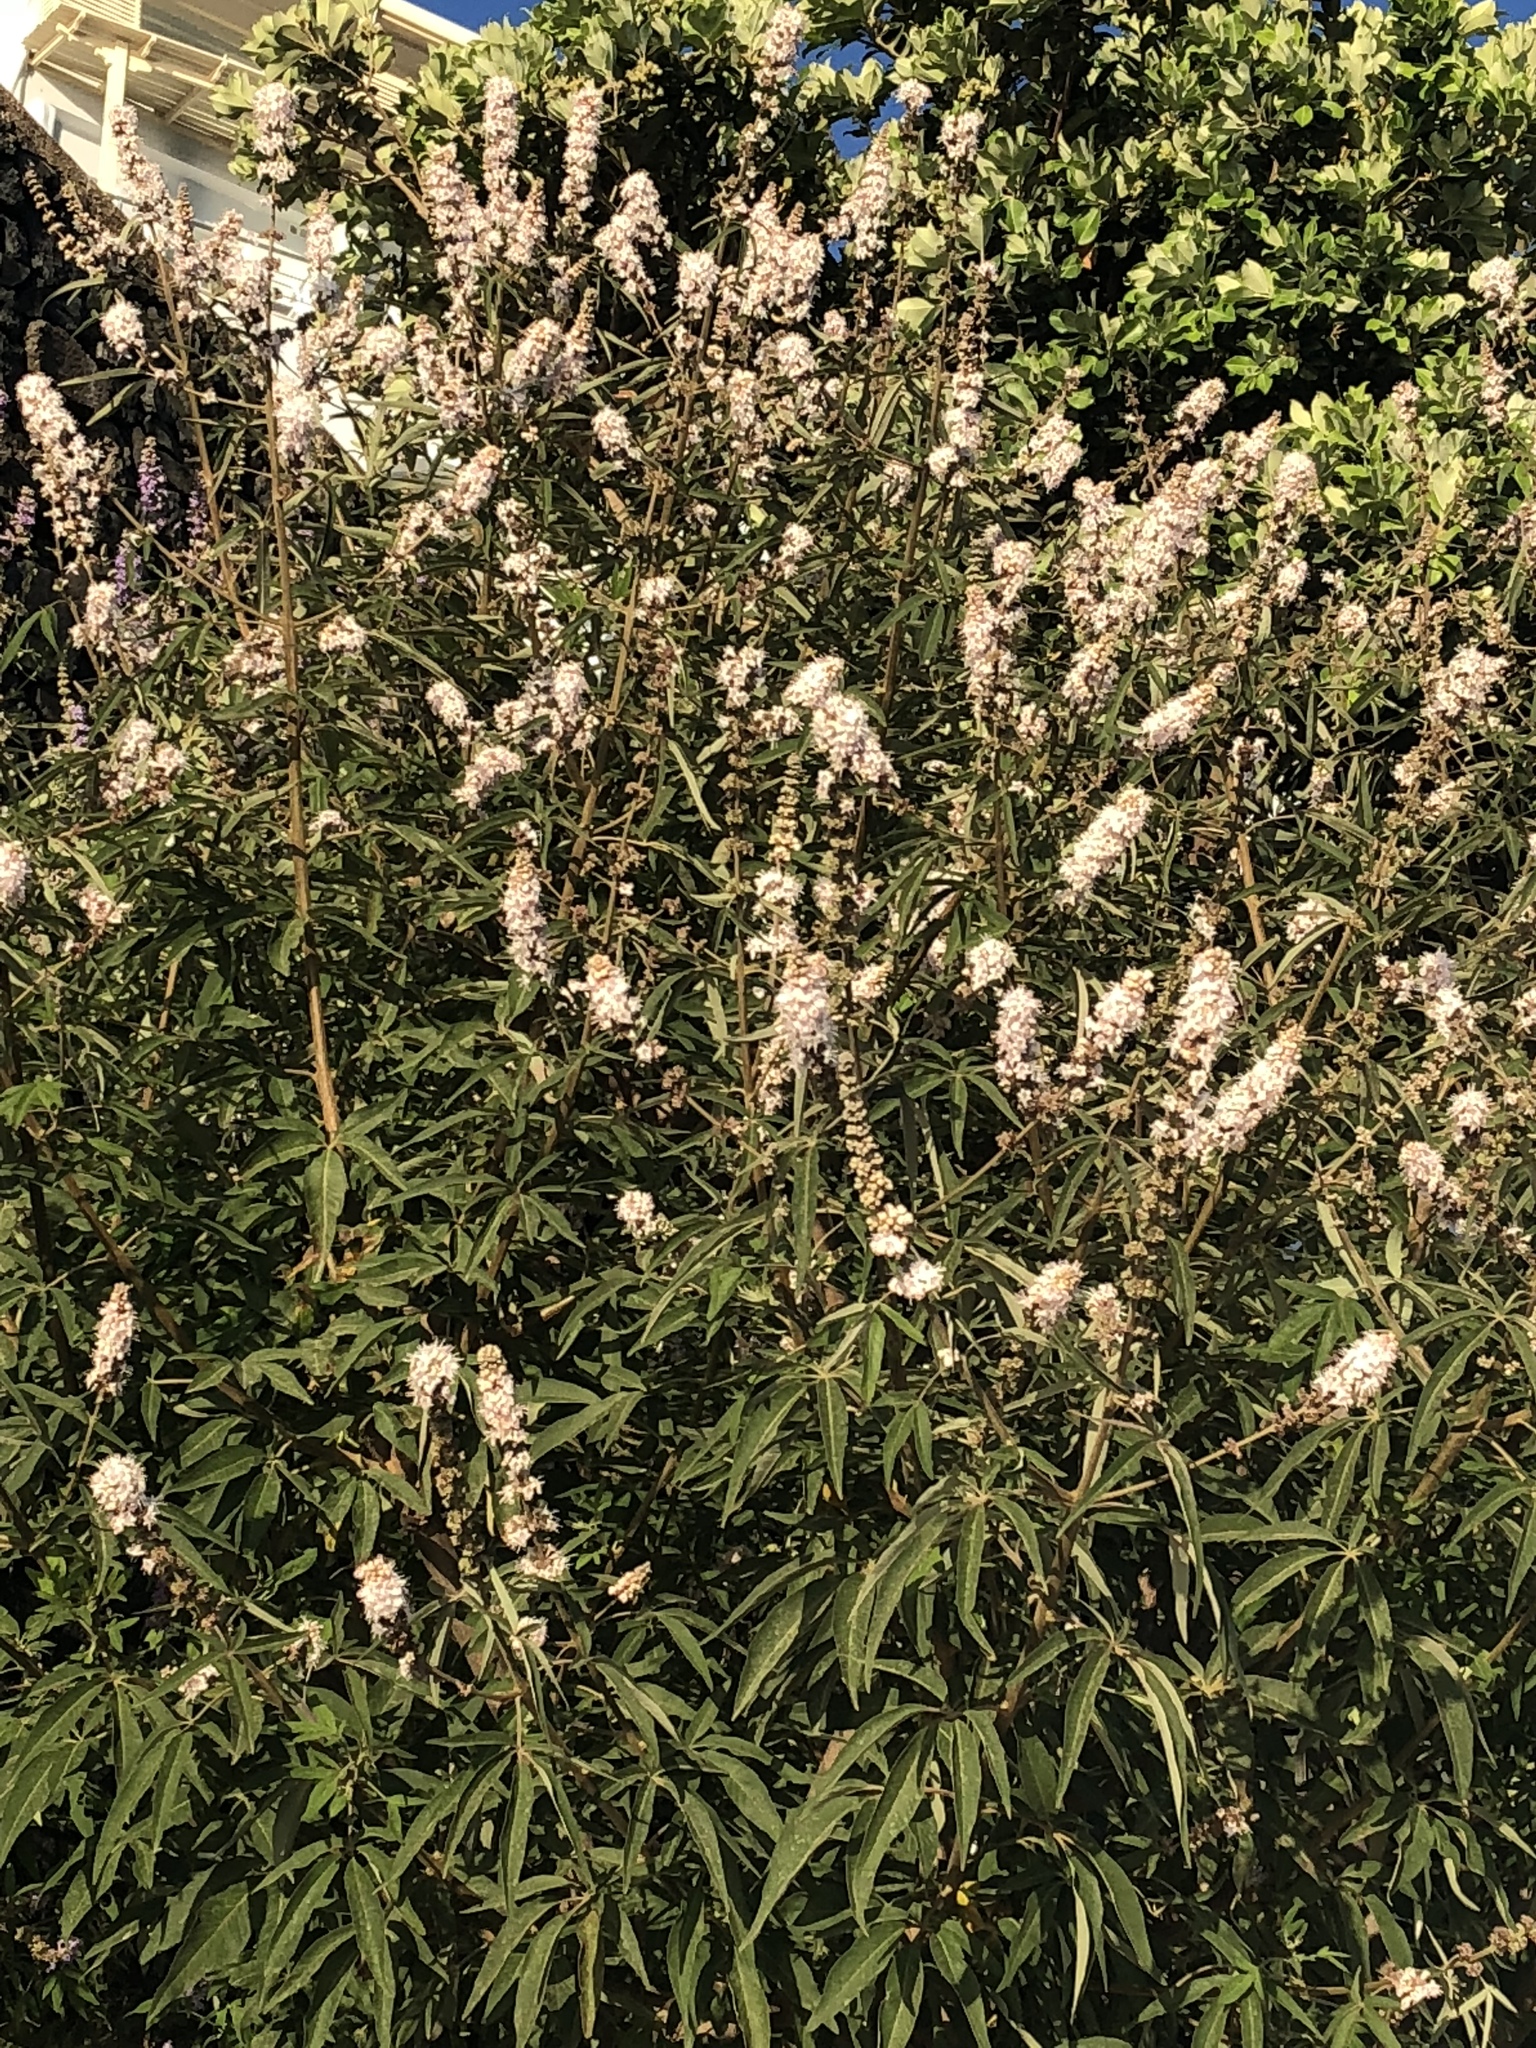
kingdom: Plantae
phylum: Tracheophyta
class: Magnoliopsida
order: Lamiales
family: Lamiaceae
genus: Vitex
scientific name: Vitex agnus-castus
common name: Chasteberry
